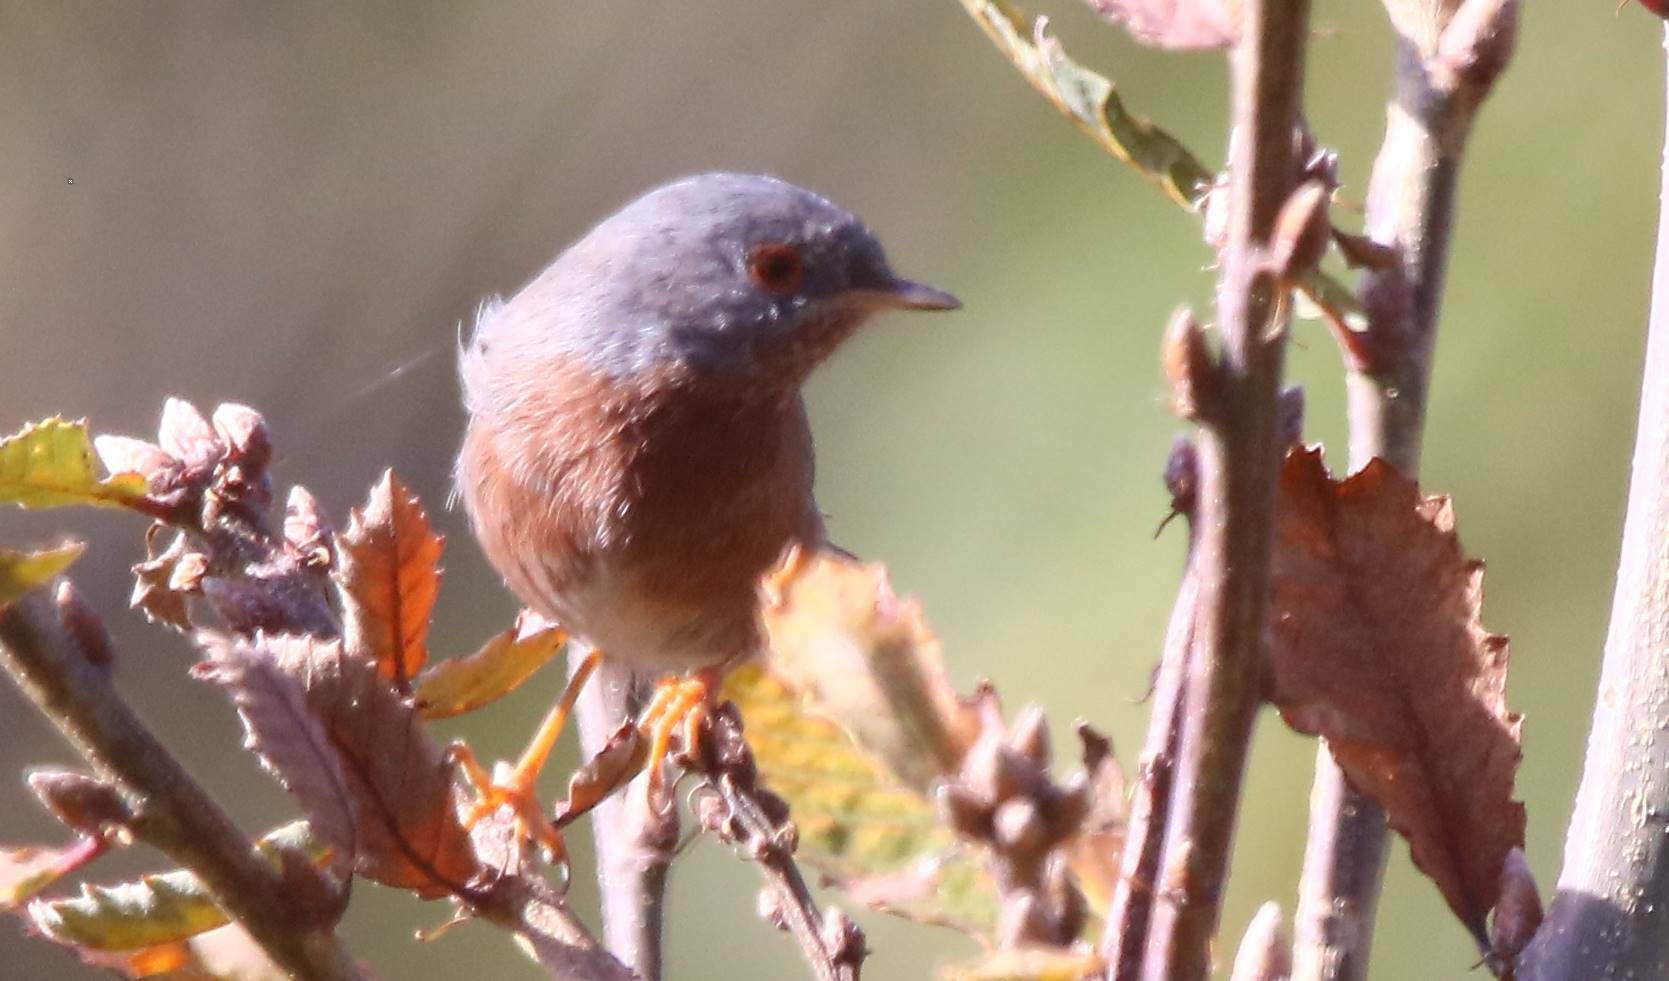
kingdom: Animalia
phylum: Chordata
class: Aves
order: Passeriformes
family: Sylviidae
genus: Sylvia
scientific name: Sylvia undata
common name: Dartford warbler
